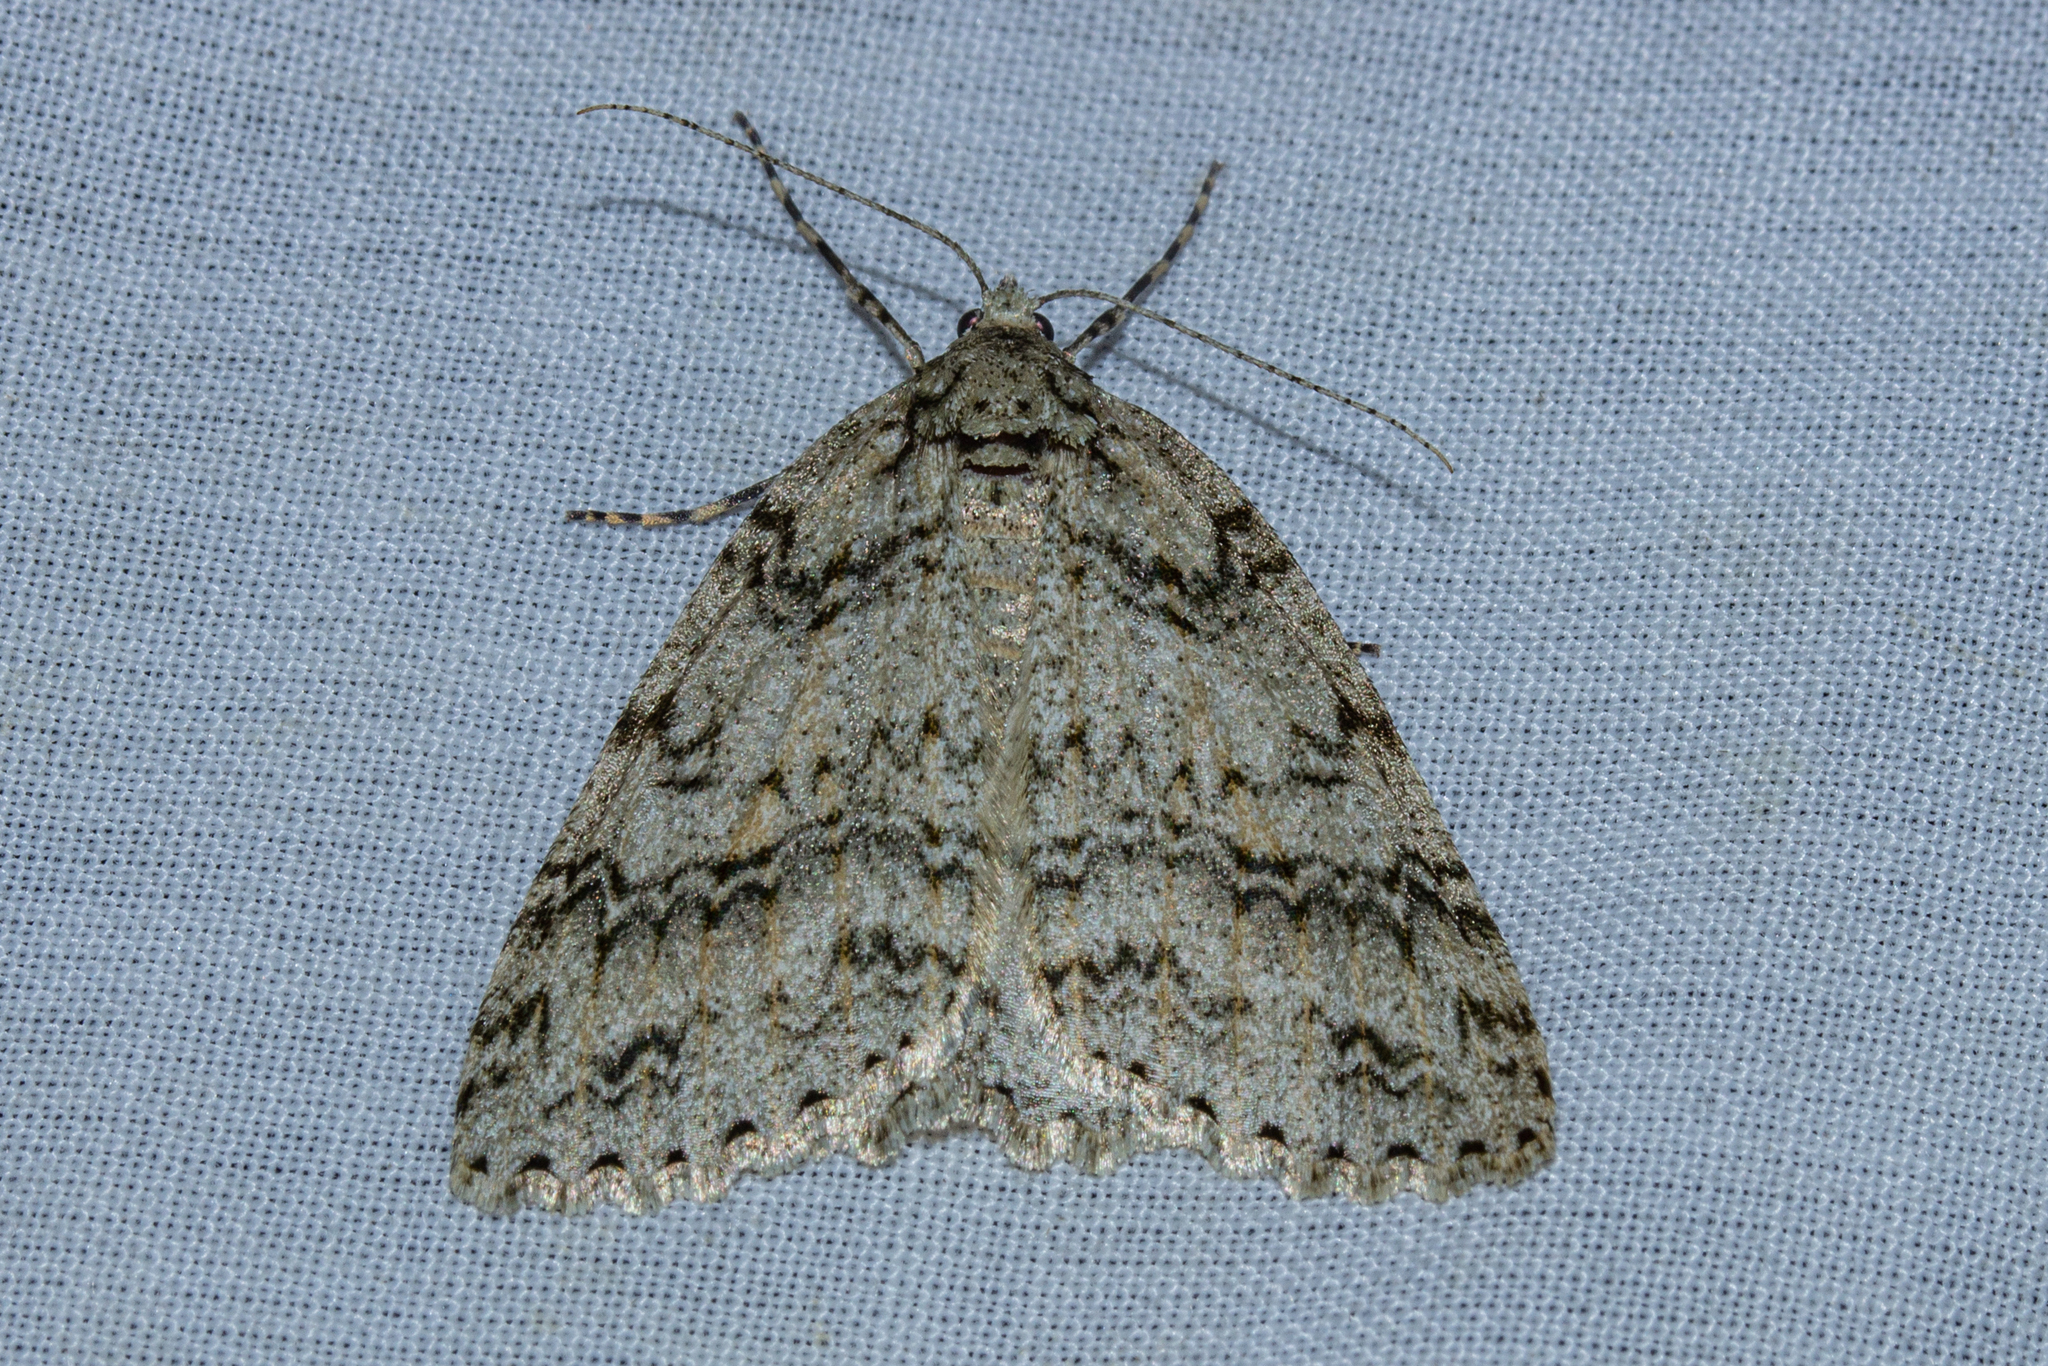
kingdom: Animalia
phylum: Arthropoda
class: Insecta
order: Lepidoptera
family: Geometridae
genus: Pseudocoremia
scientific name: Pseudocoremia rudisata
